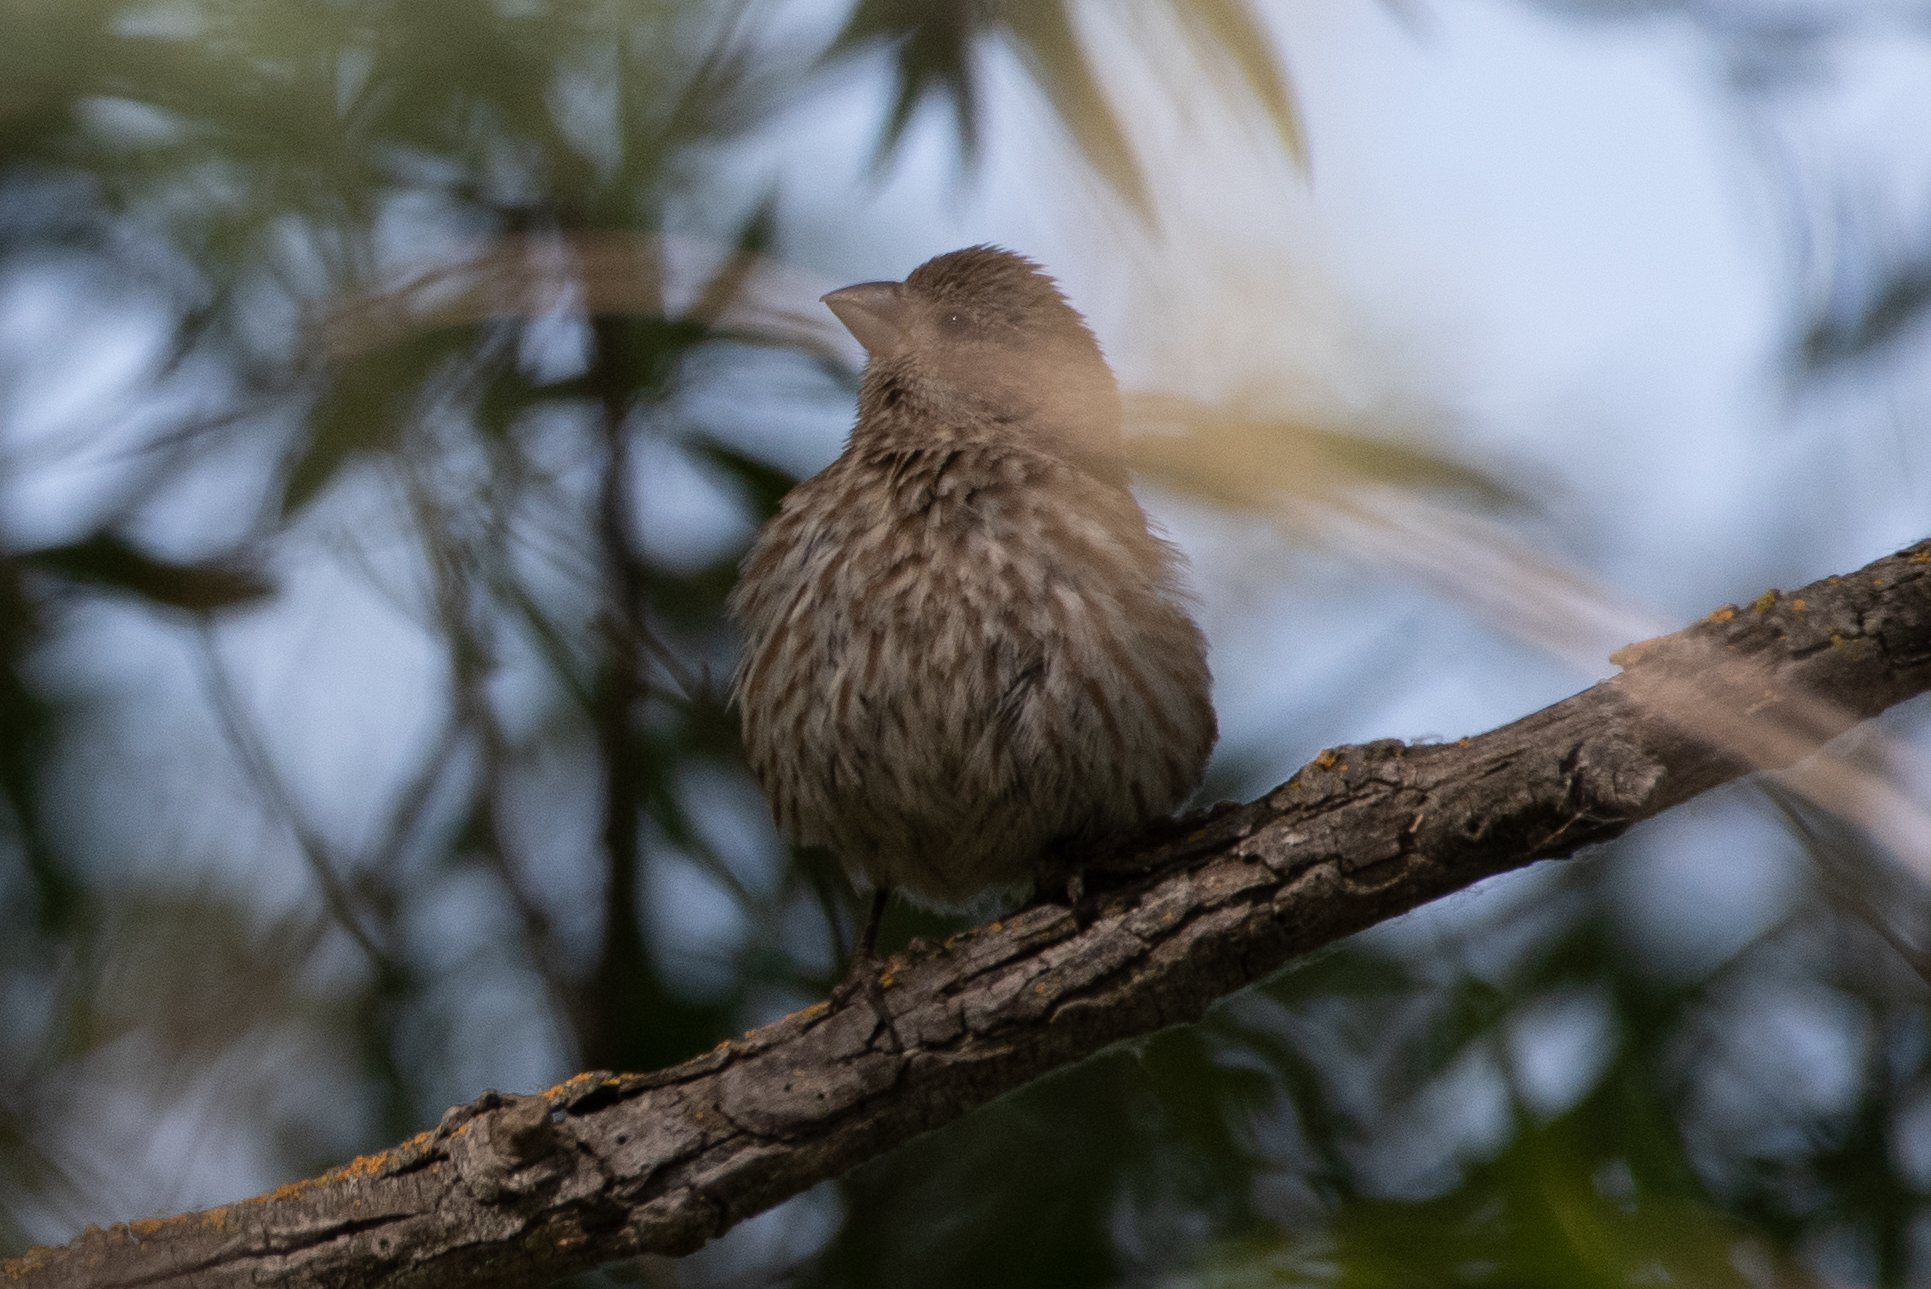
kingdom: Animalia
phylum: Chordata
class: Aves
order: Passeriformes
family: Fringillidae
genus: Haemorhous
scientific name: Haemorhous mexicanus
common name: House finch
